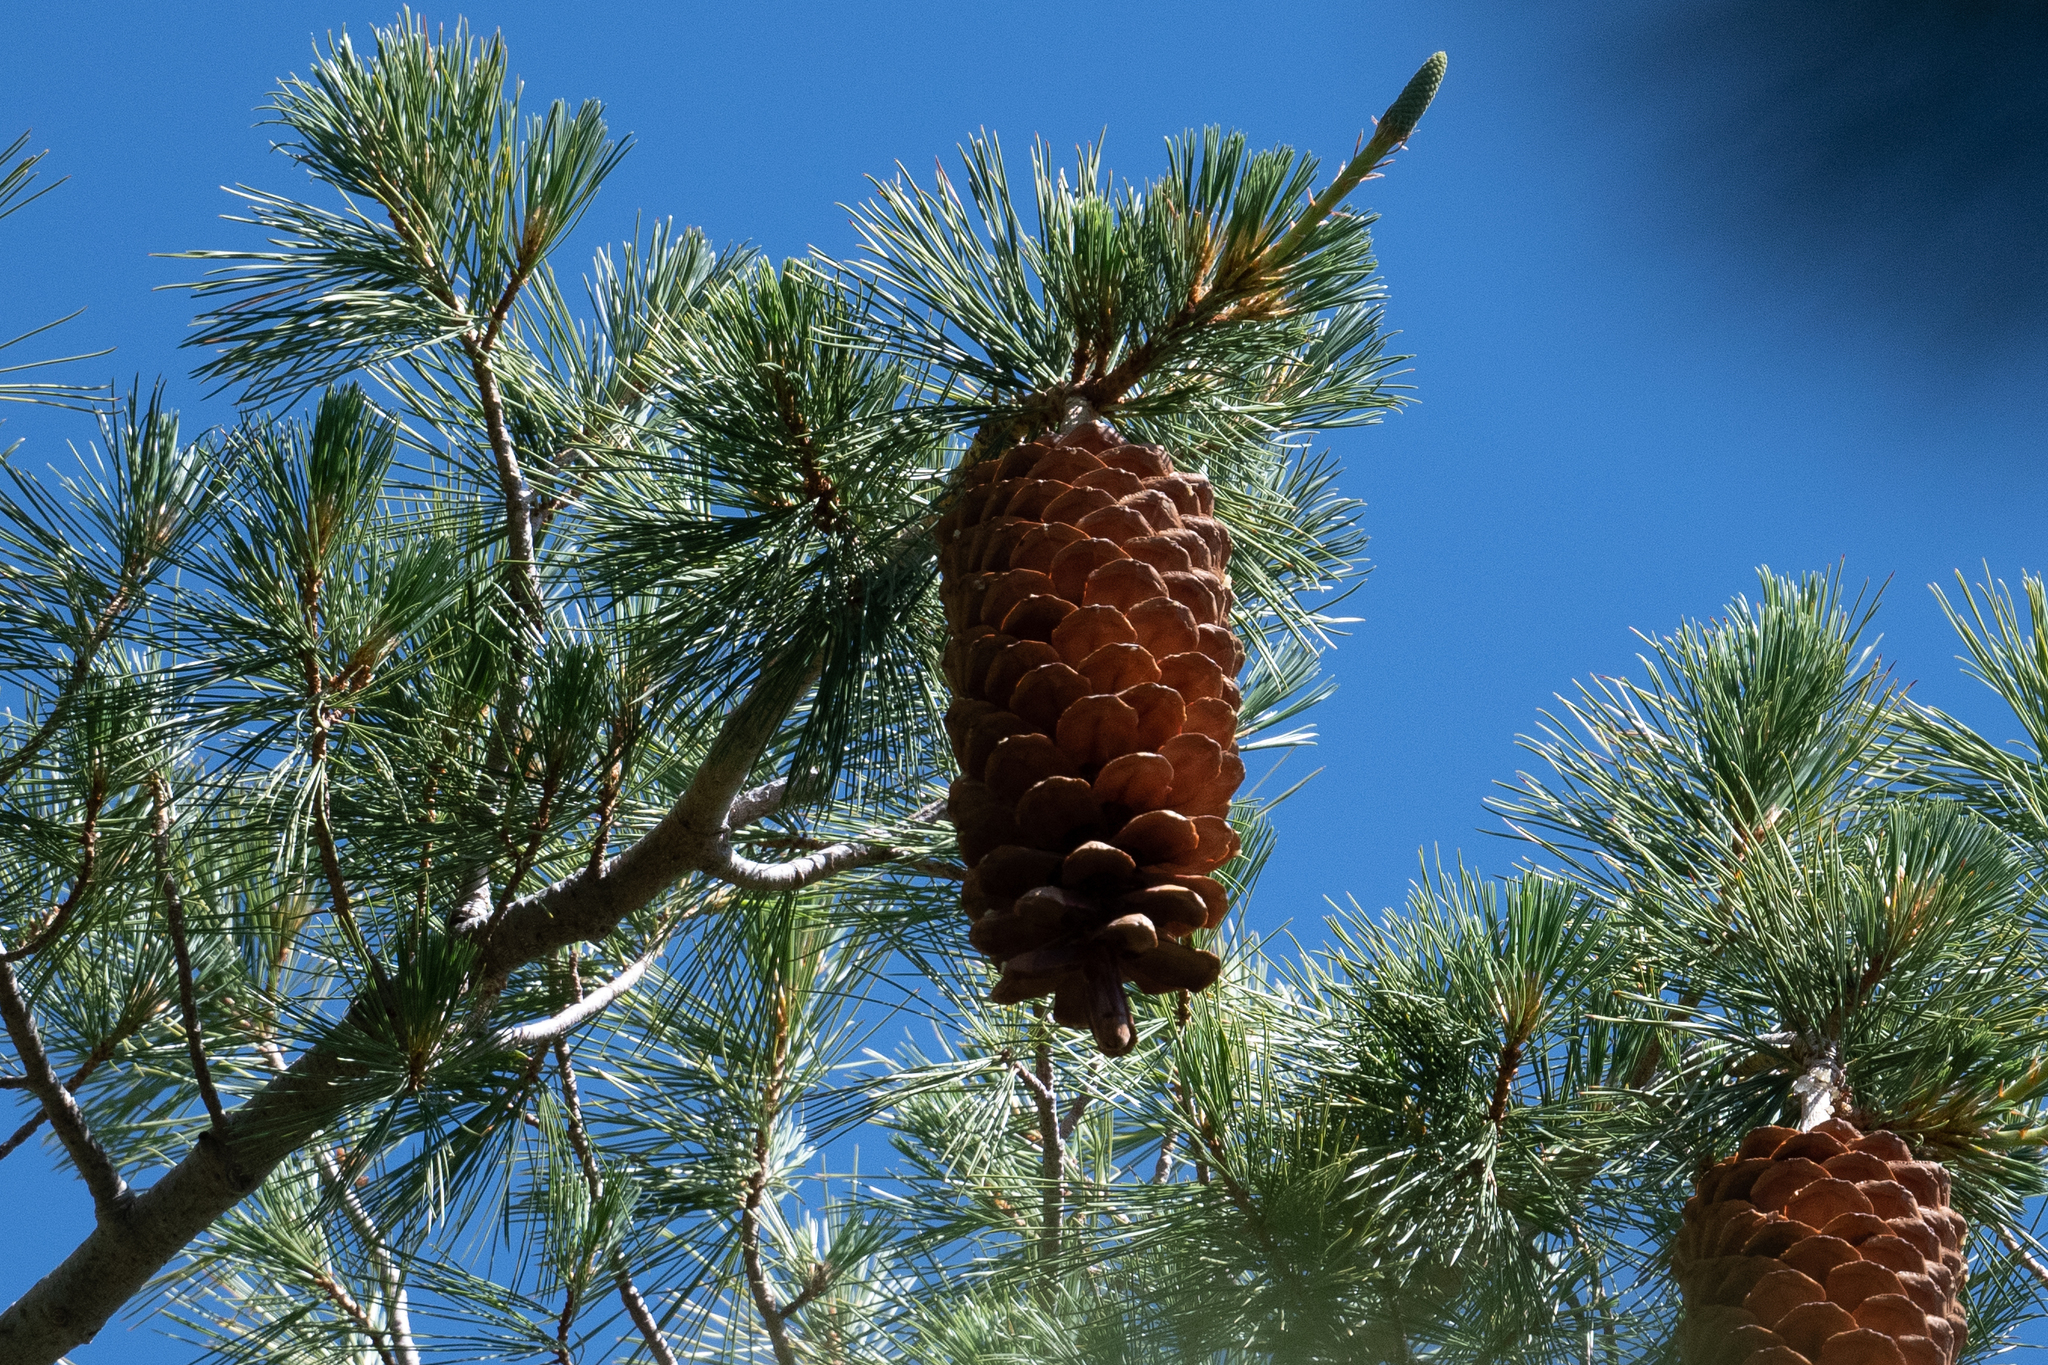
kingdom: Plantae
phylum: Tracheophyta
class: Pinopsida
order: Pinales
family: Pinaceae
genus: Pinus
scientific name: Pinus lambertiana
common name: Sugar pine
